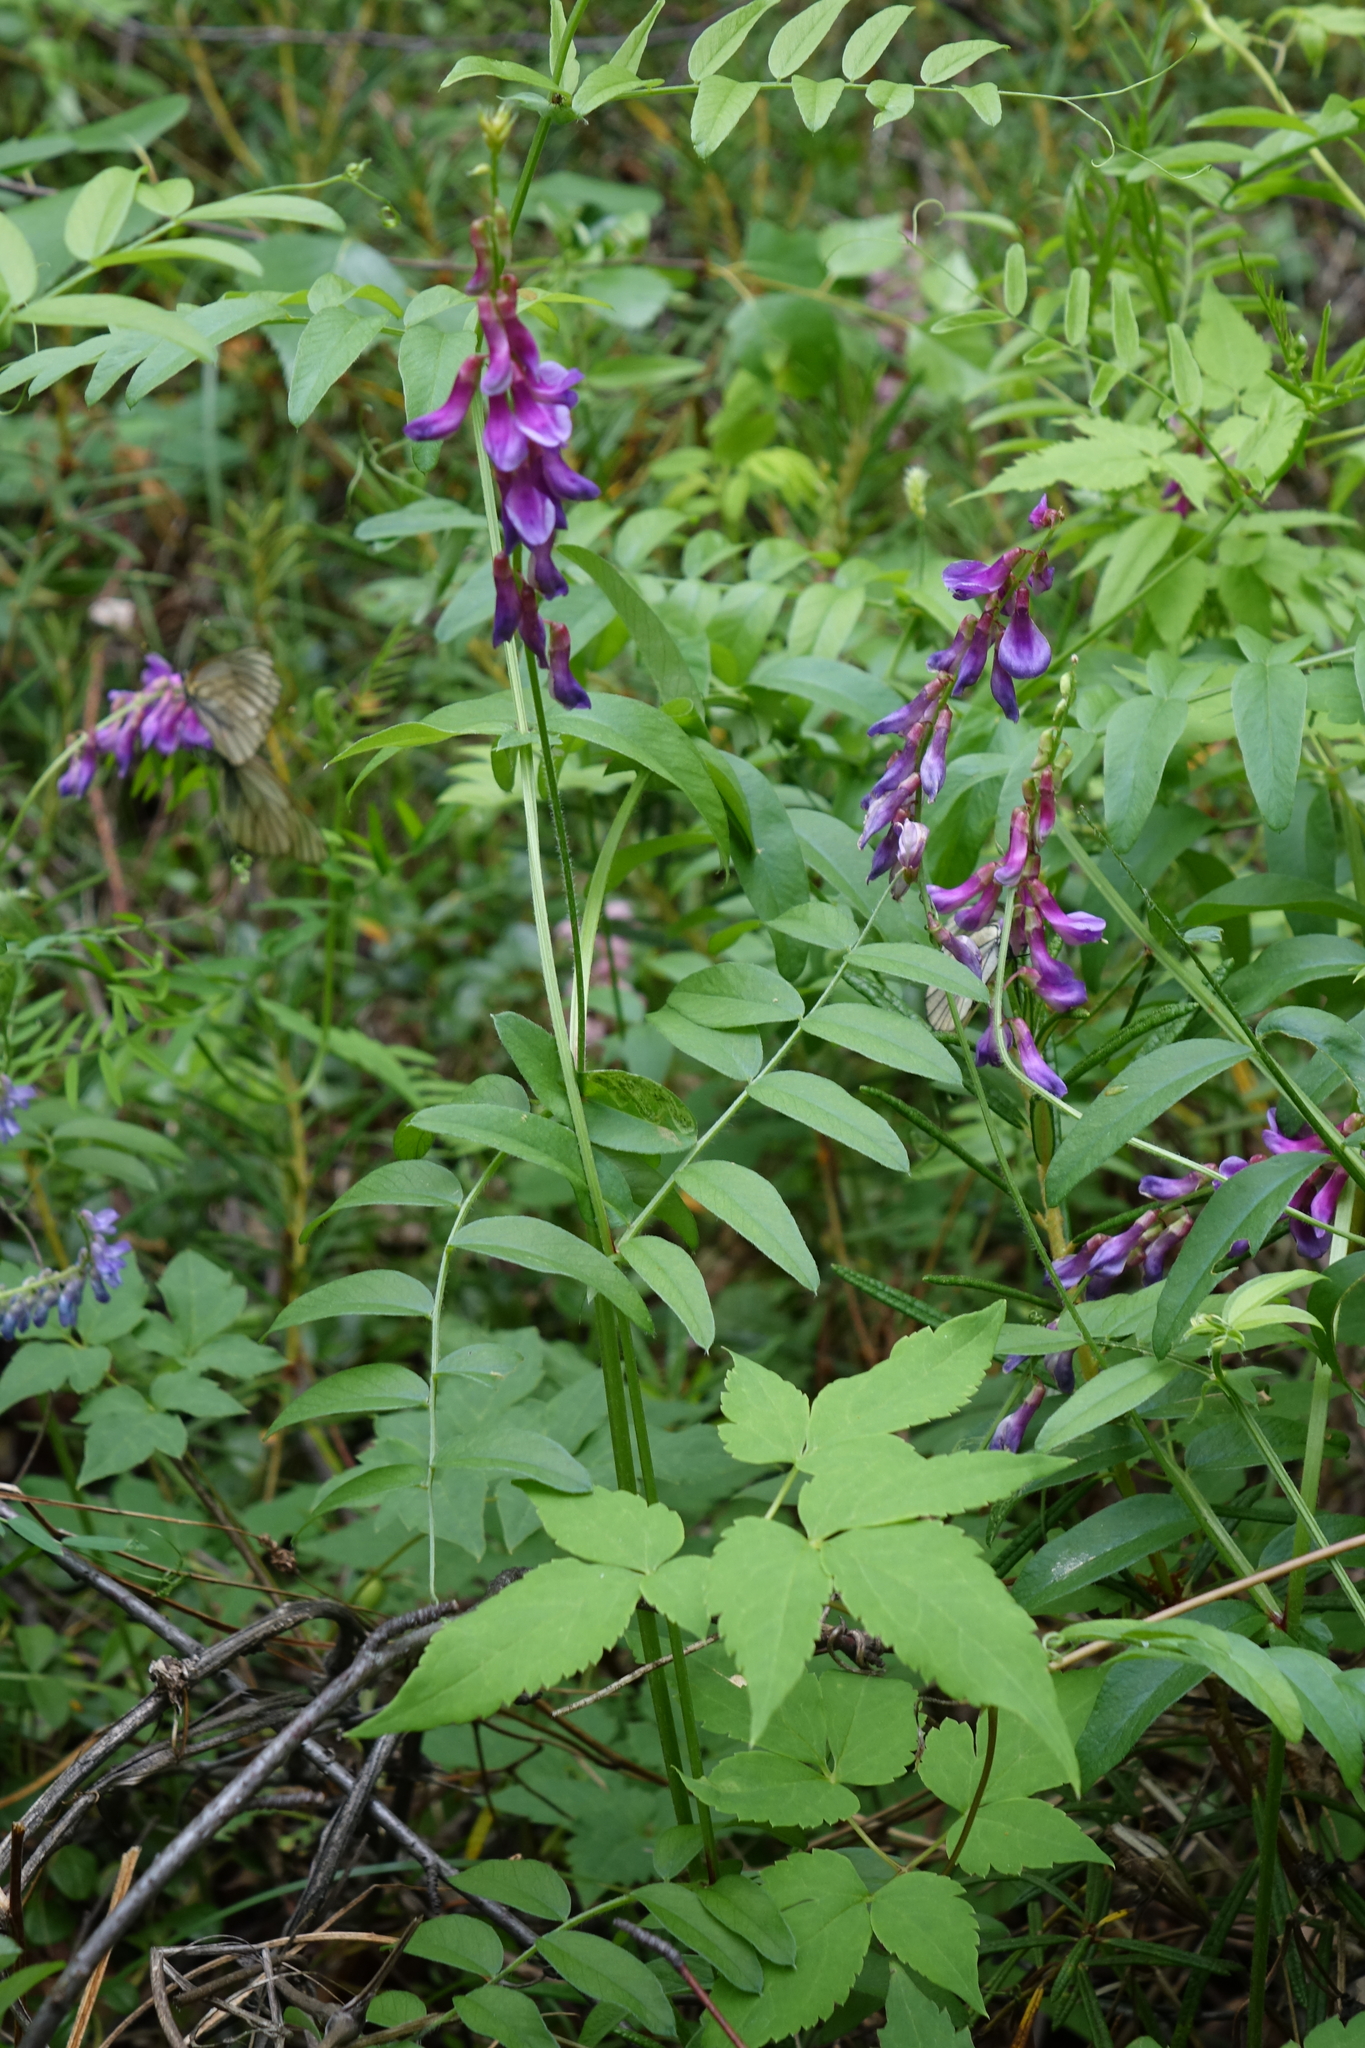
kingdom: Plantae
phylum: Tracheophyta
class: Magnoliopsida
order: Fabales
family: Fabaceae
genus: Vicia
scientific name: Vicia amoena
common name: Cheder ebs
